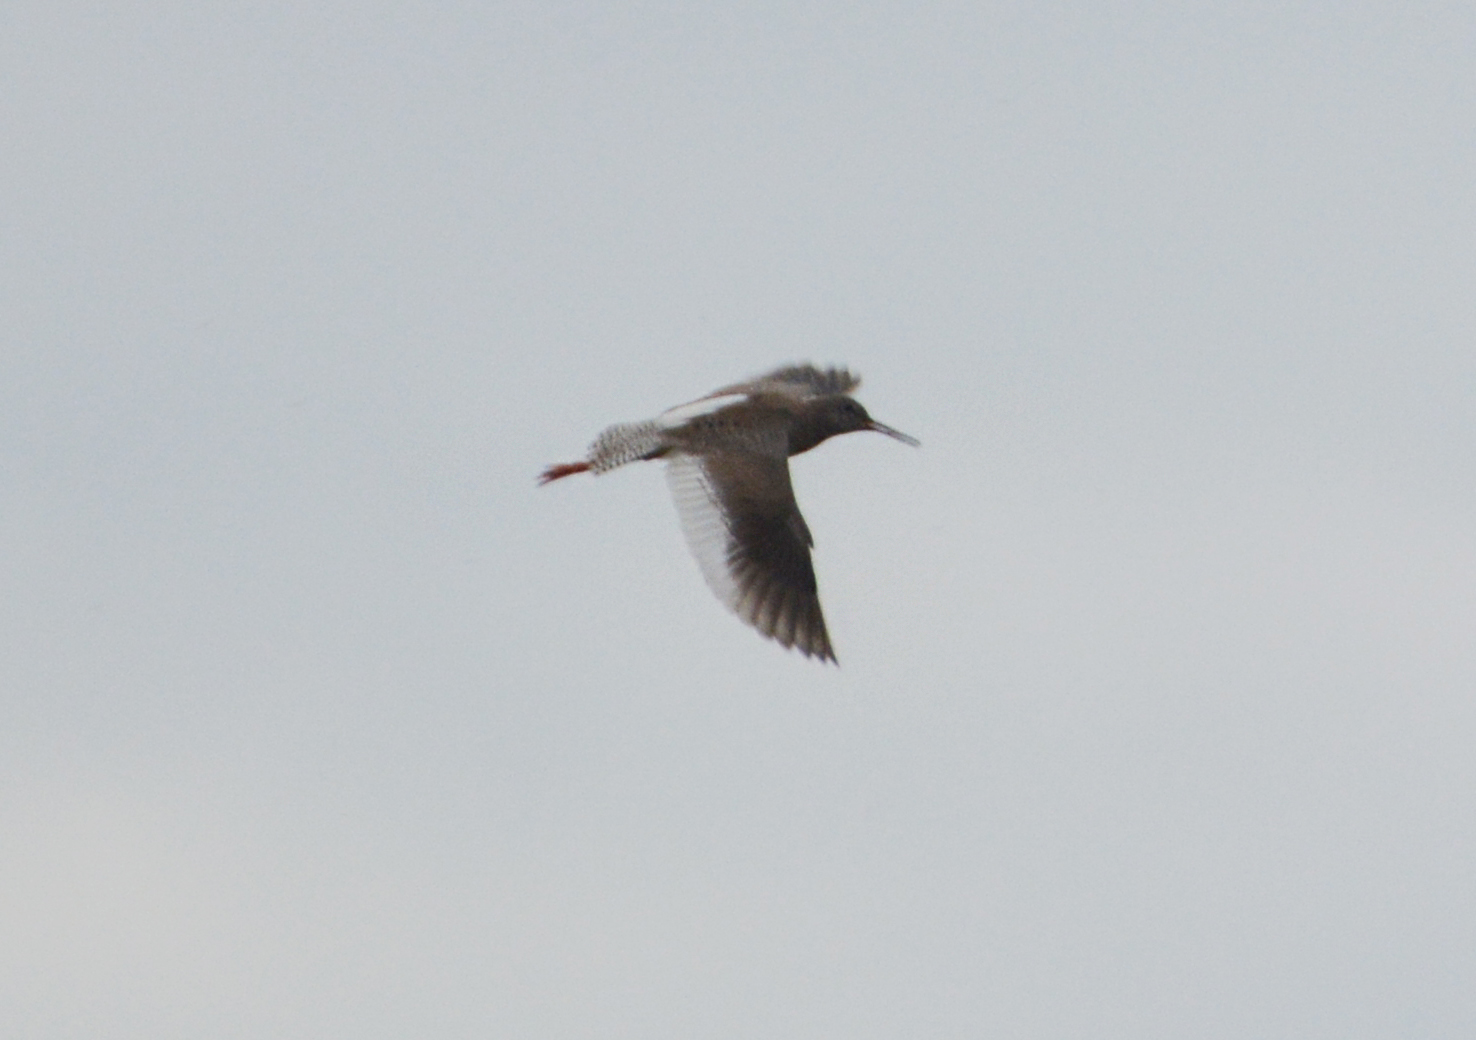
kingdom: Animalia
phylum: Chordata
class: Aves
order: Charadriiformes
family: Scolopacidae
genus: Tringa
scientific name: Tringa totanus
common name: Common redshank
